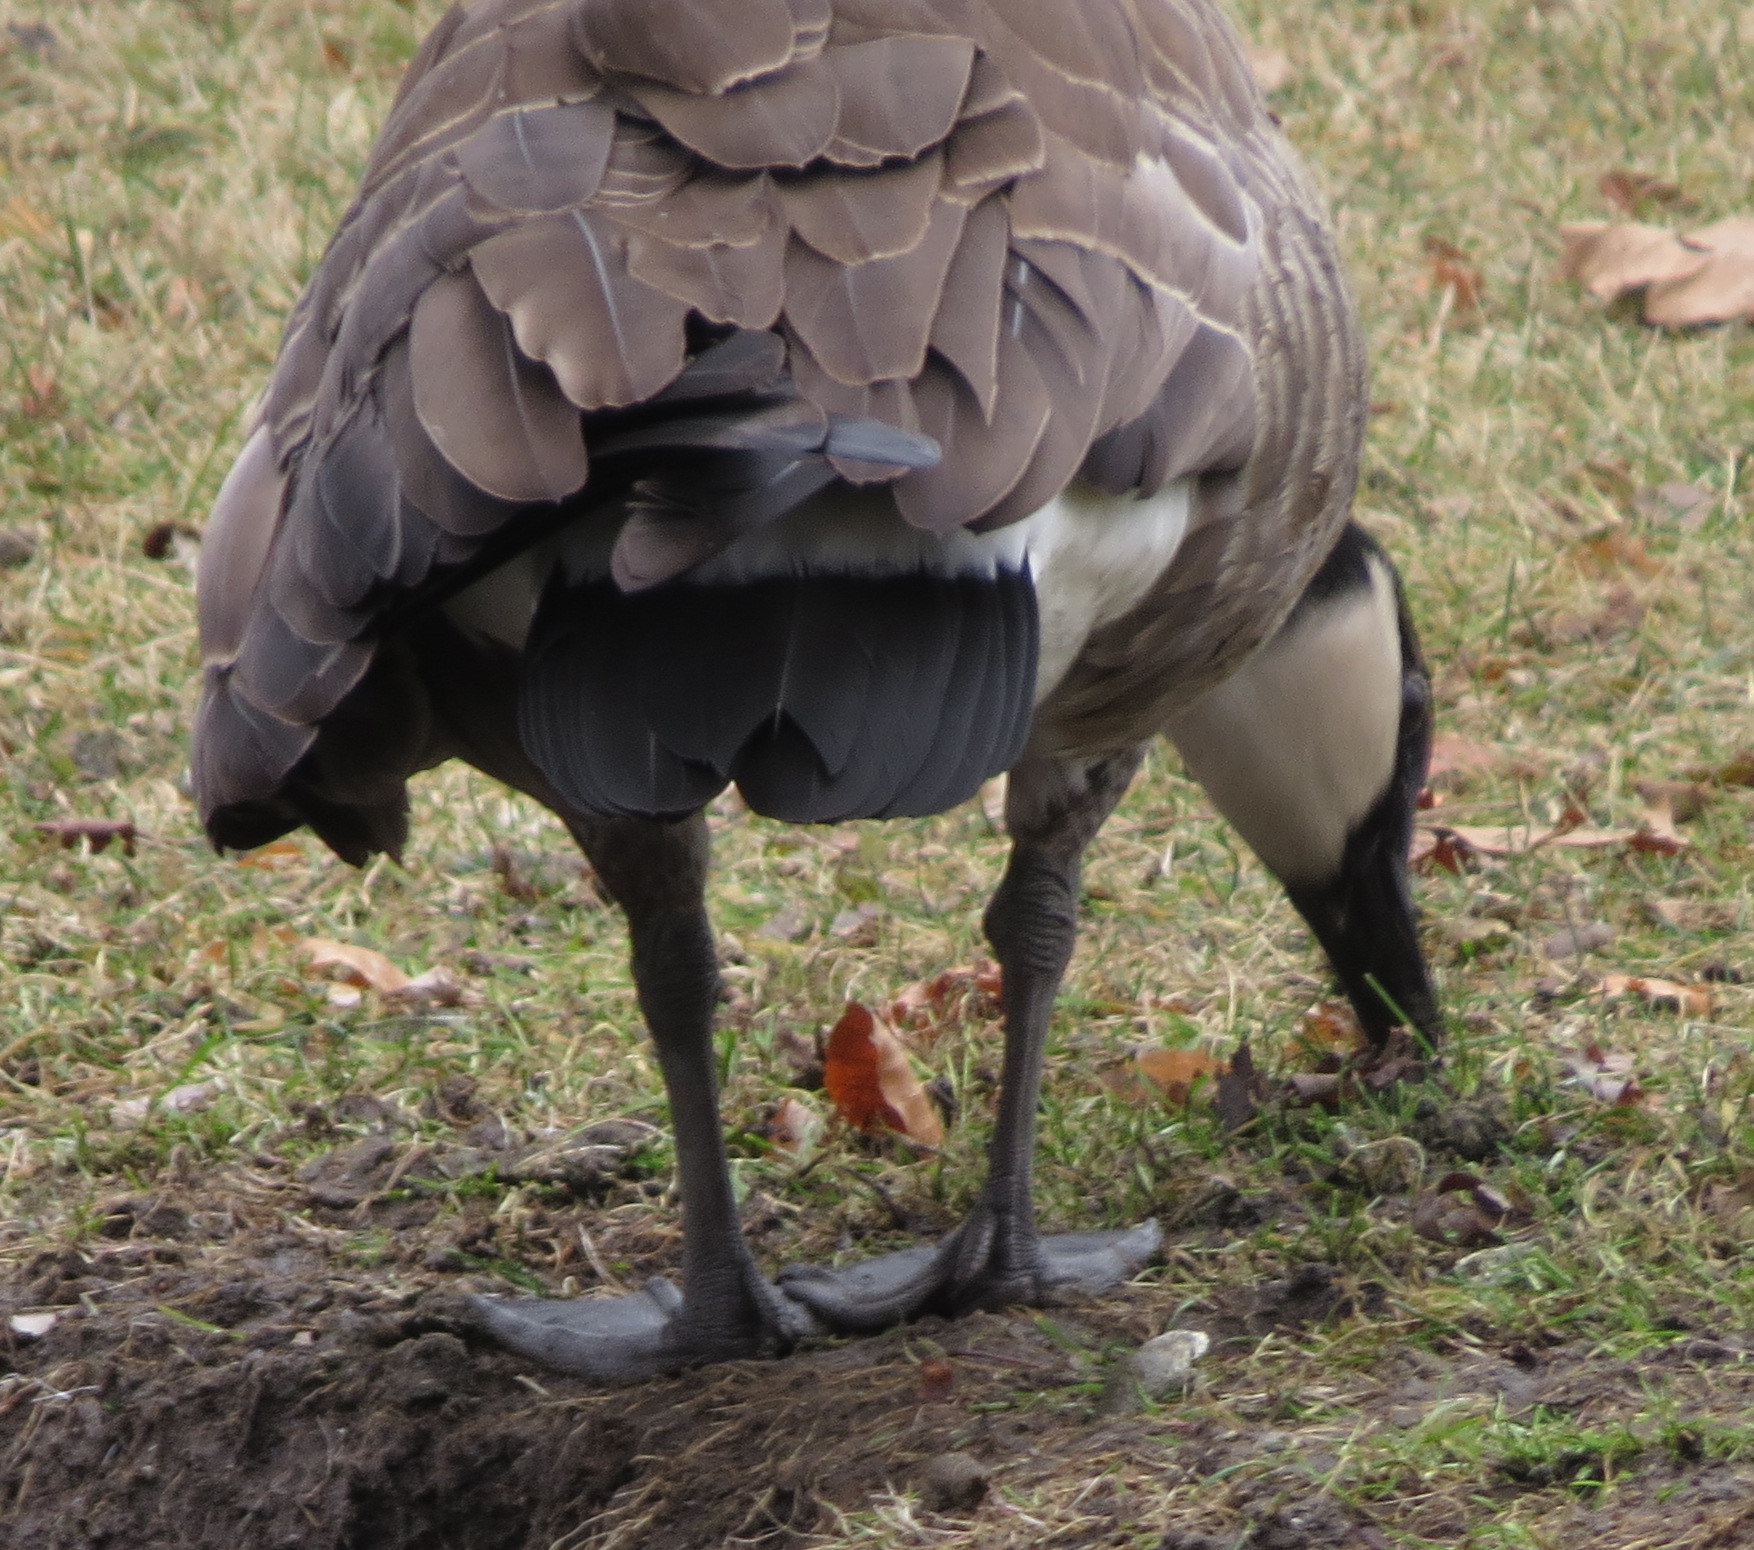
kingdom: Animalia
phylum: Chordata
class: Aves
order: Anseriformes
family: Anatidae
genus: Branta
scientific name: Branta canadensis
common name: Canada goose
